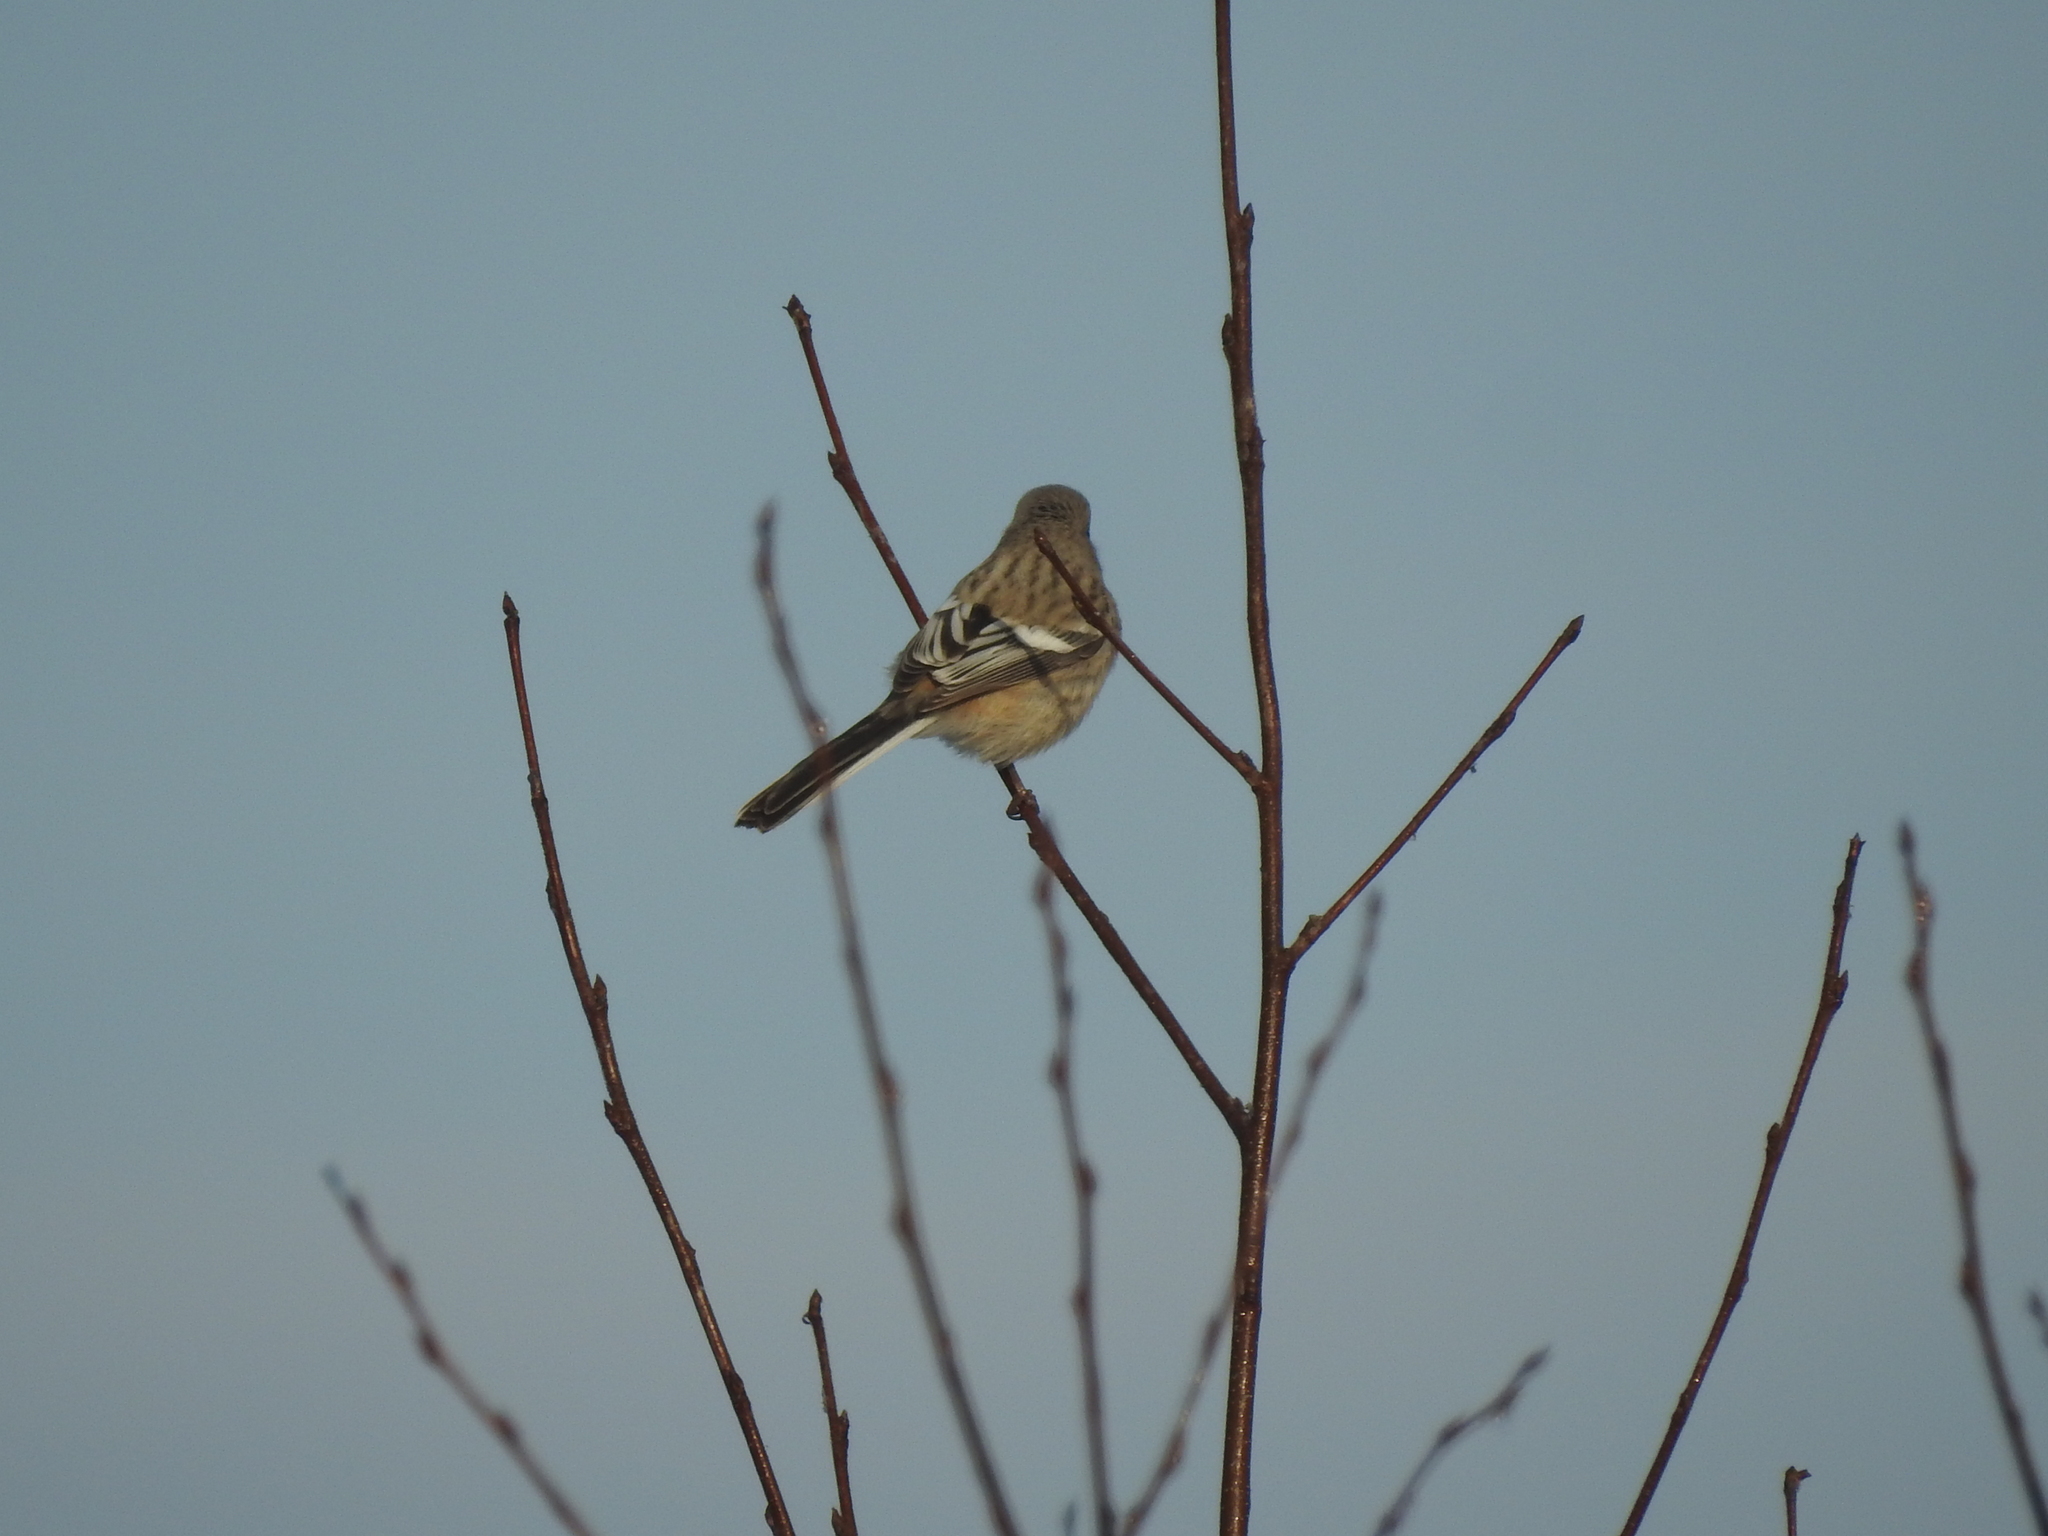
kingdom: Animalia
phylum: Chordata
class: Aves
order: Passeriformes
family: Fringillidae
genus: Carpodacus
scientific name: Carpodacus sibiricus
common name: Long-tailed rosefinch
